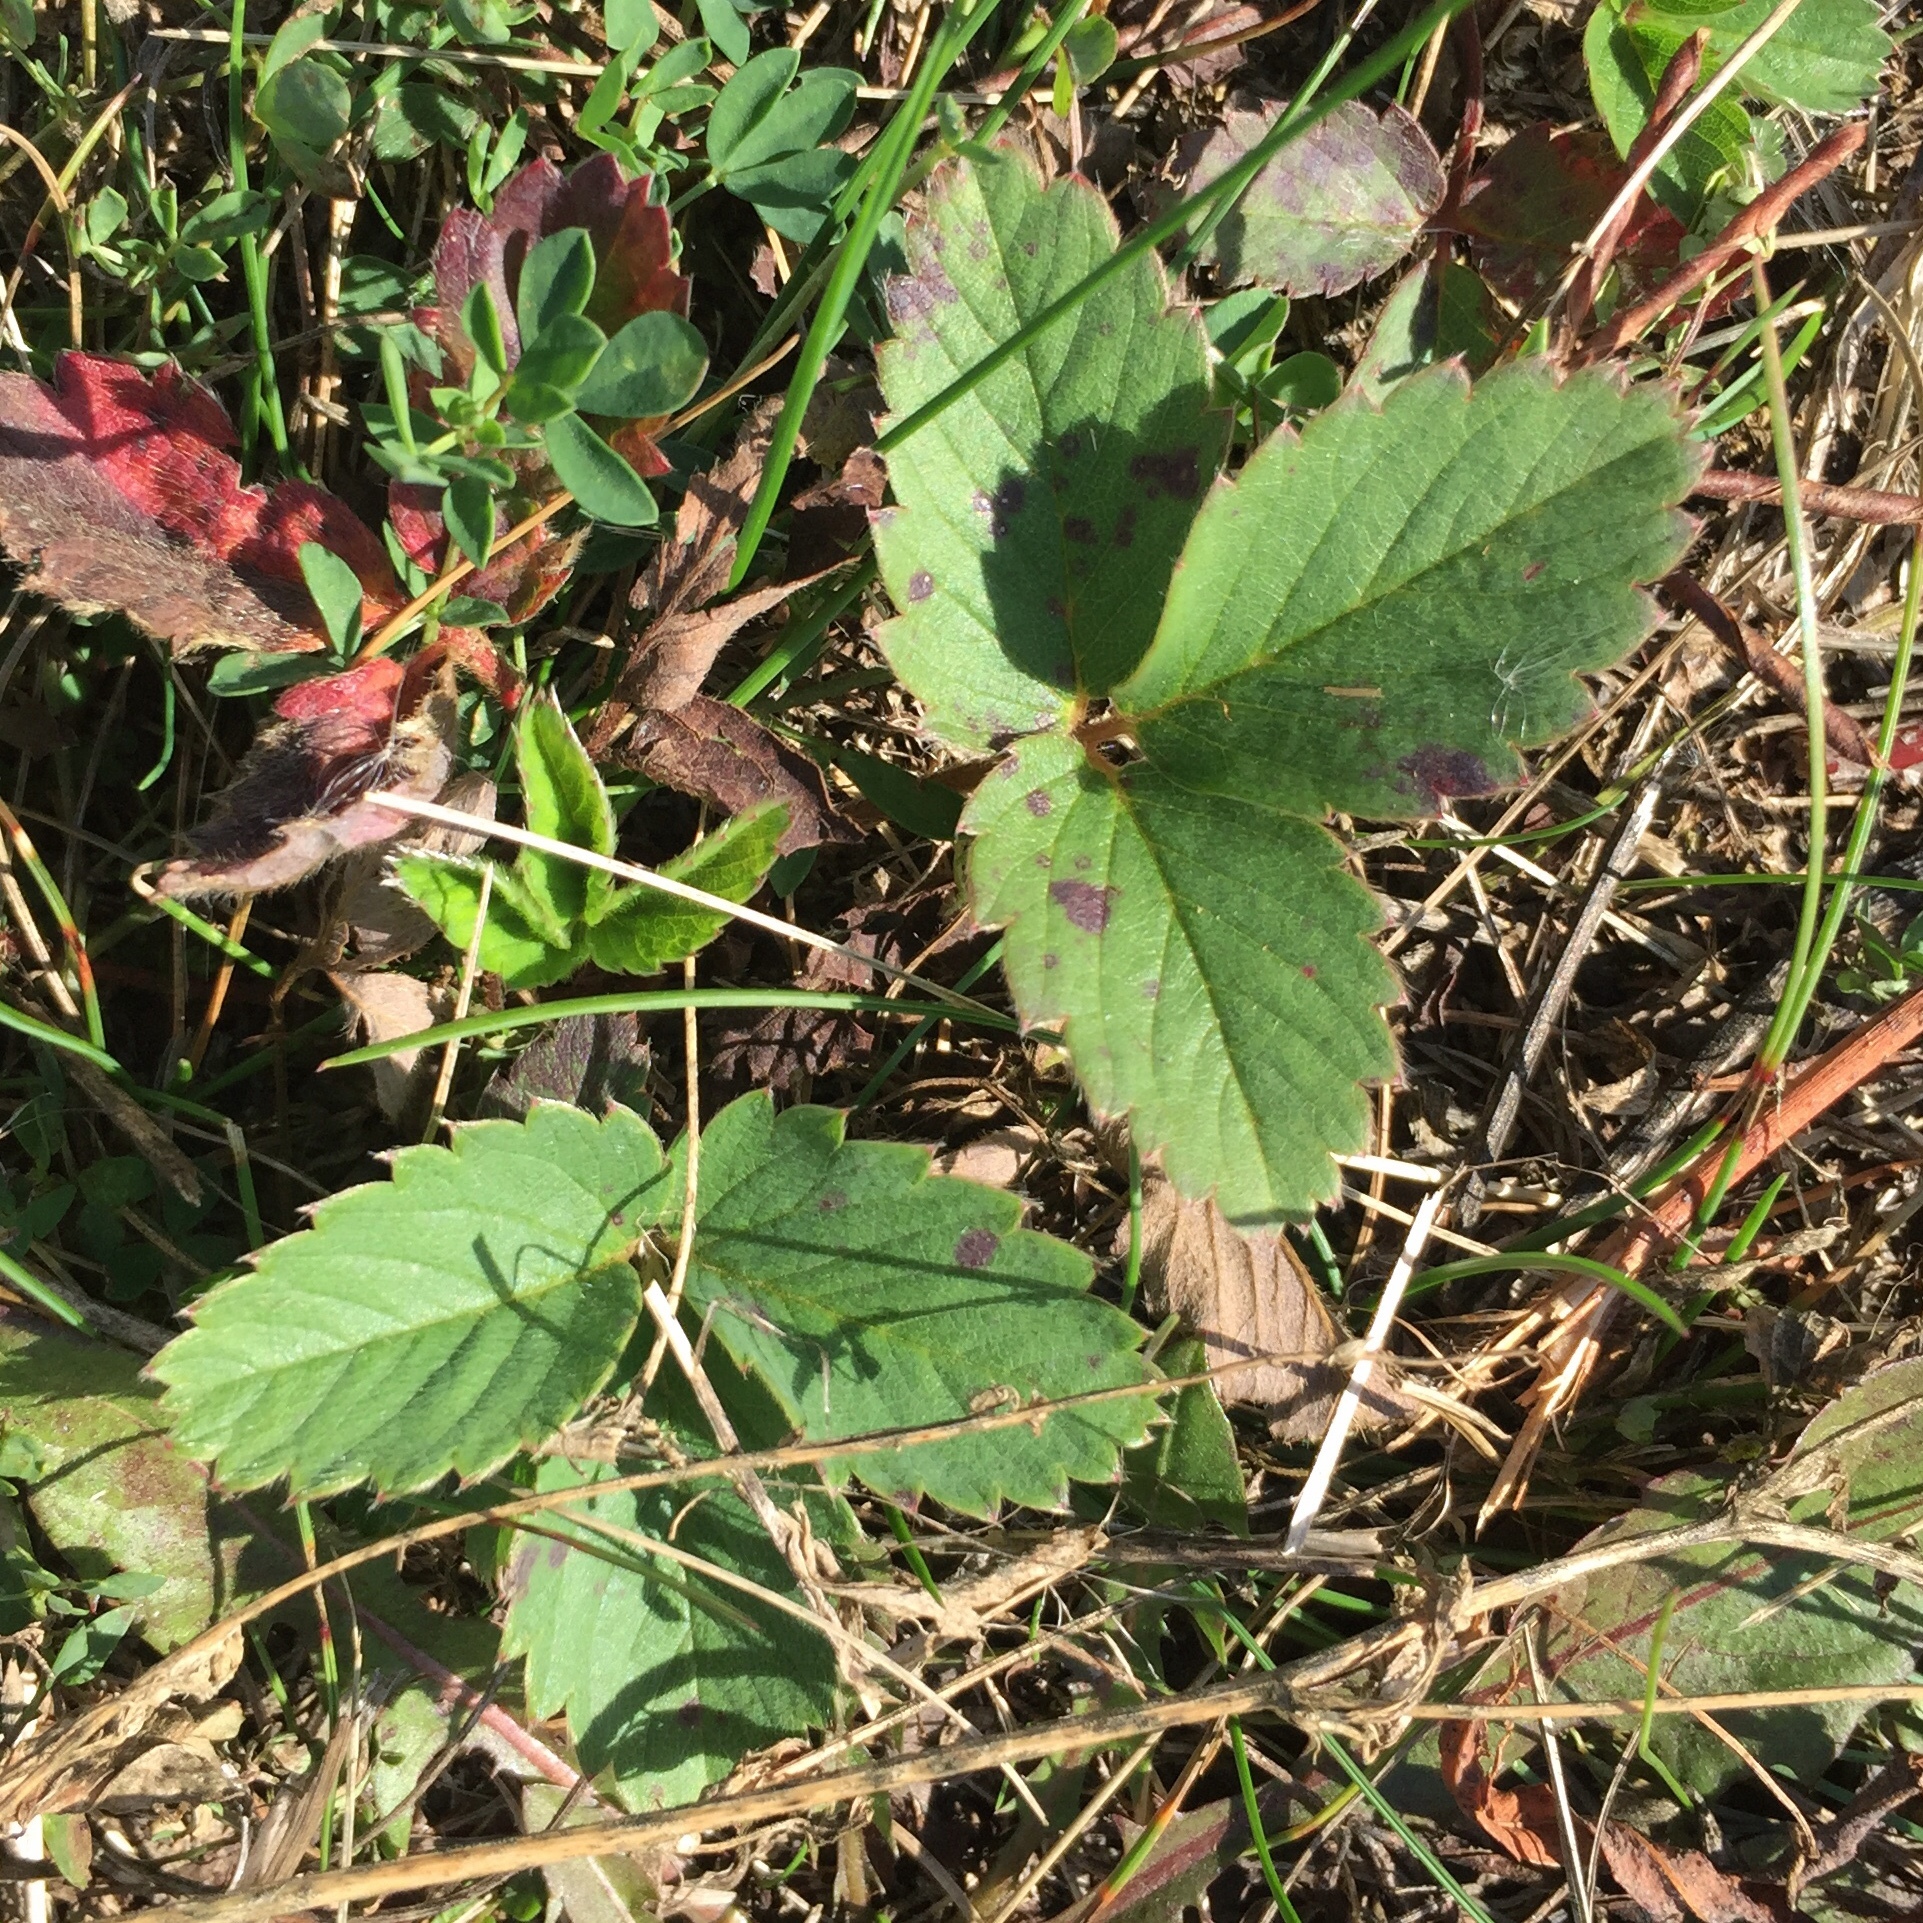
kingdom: Plantae
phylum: Tracheophyta
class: Magnoliopsida
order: Rosales
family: Rosaceae
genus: Fragaria
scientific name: Fragaria virginiana
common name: Thickleaved wild strawberry
